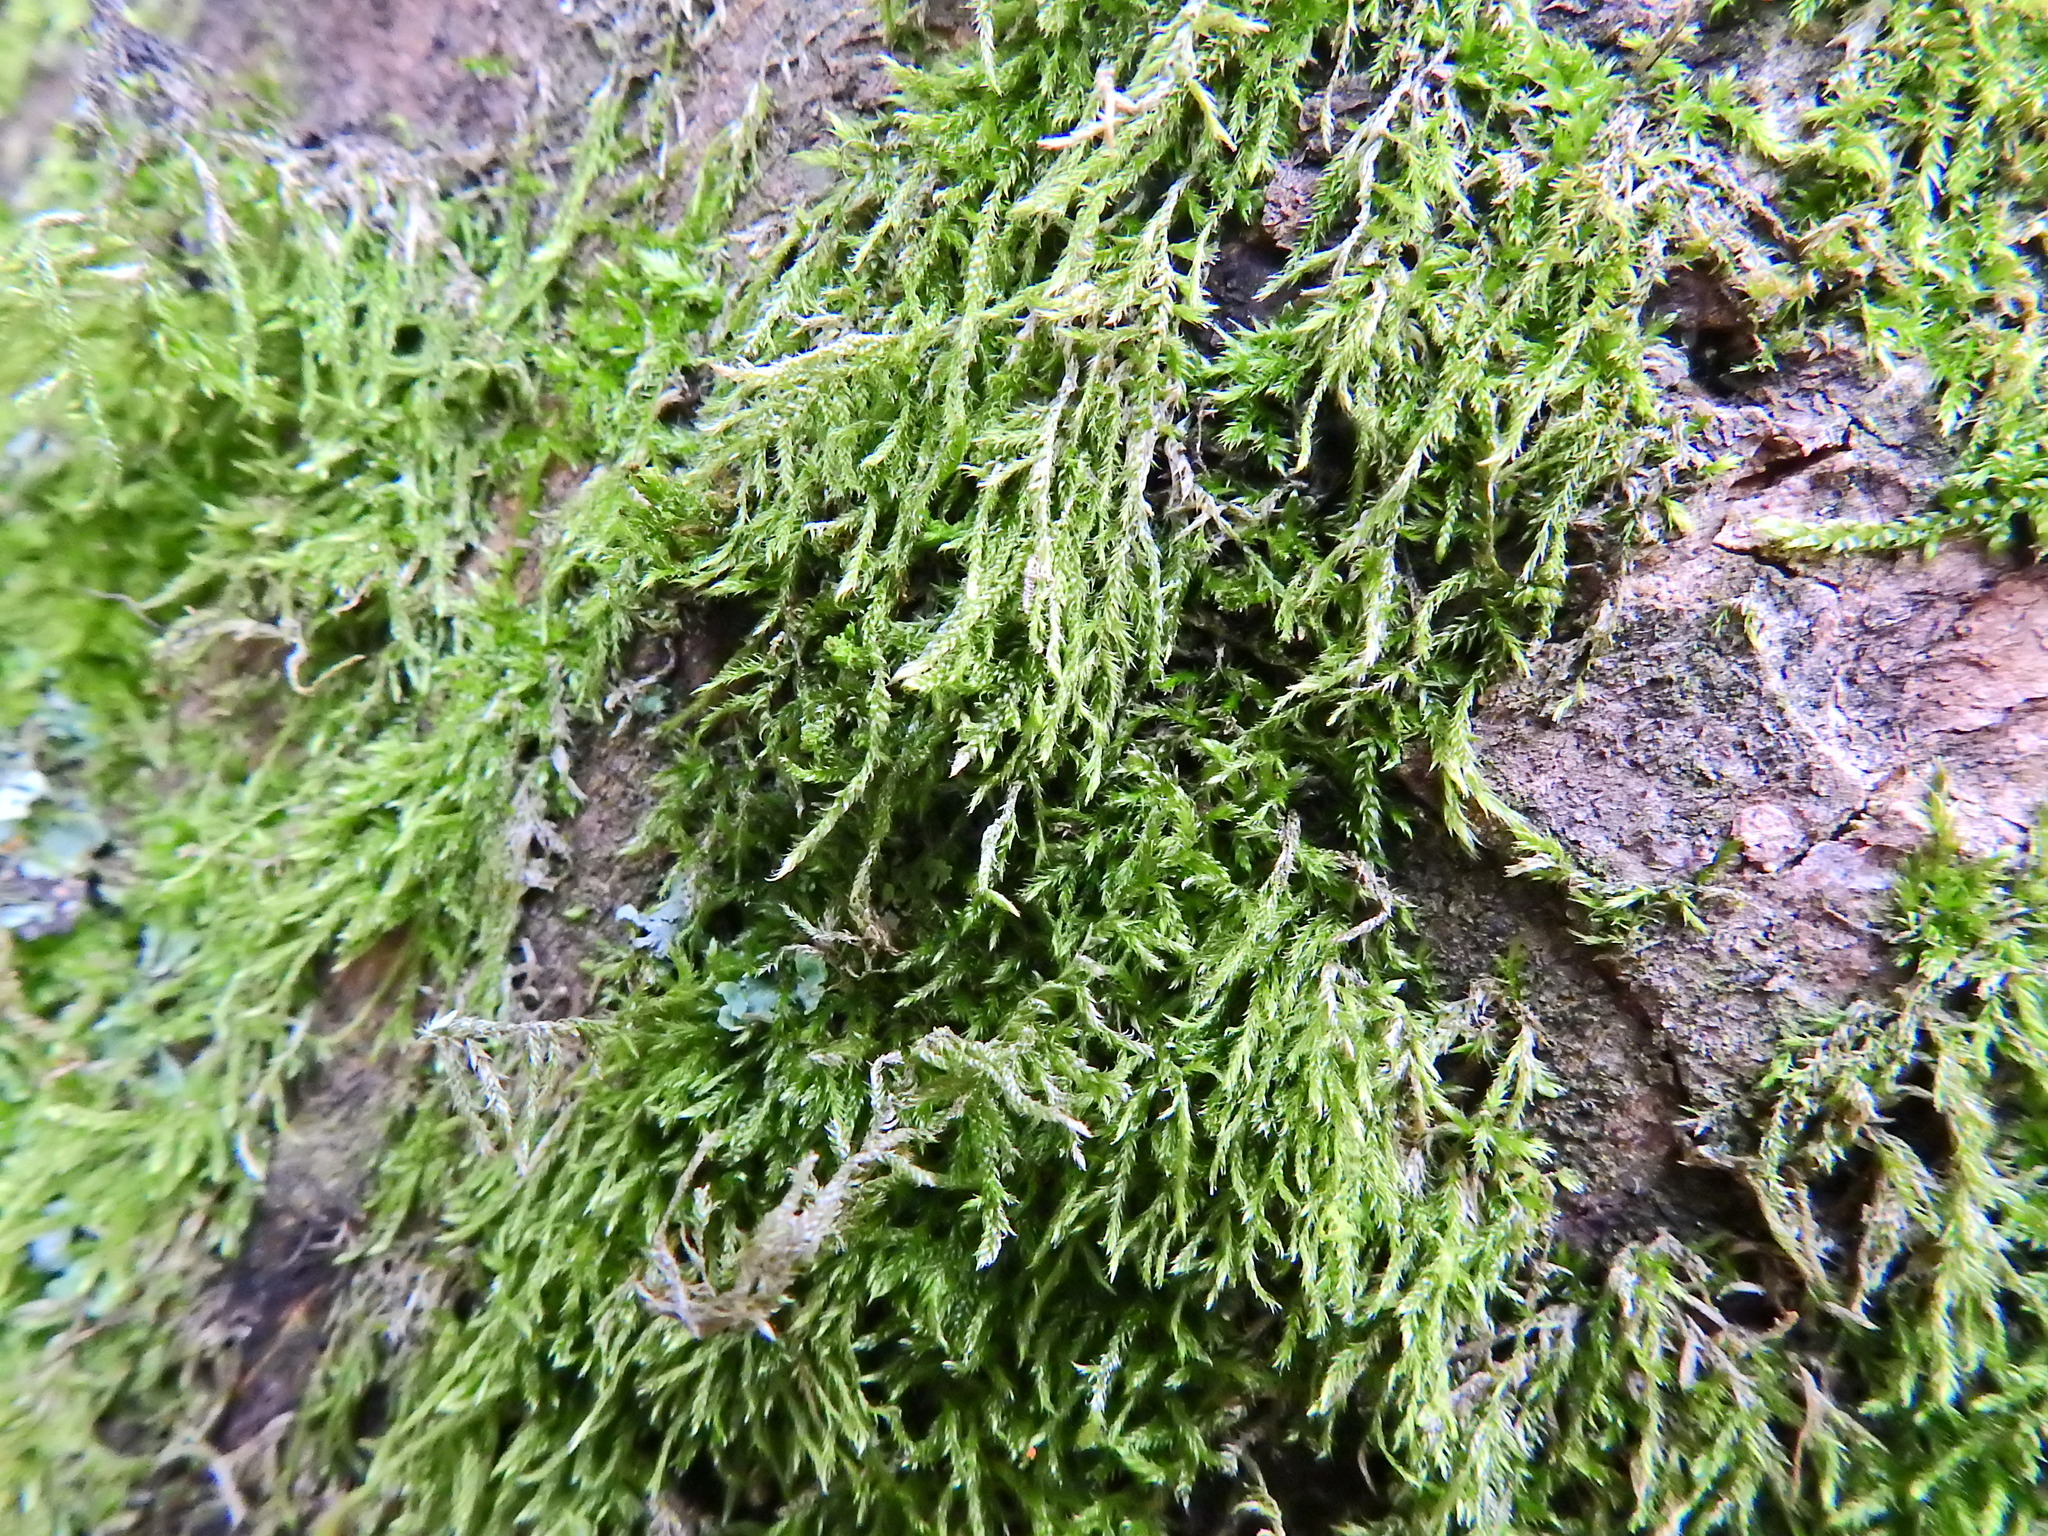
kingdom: Plantae
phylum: Bryophyta
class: Bryopsida
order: Hypnales
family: Hypnaceae
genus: Hypnum
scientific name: Hypnum cupressiforme
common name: Cypress-leaved plait-moss
